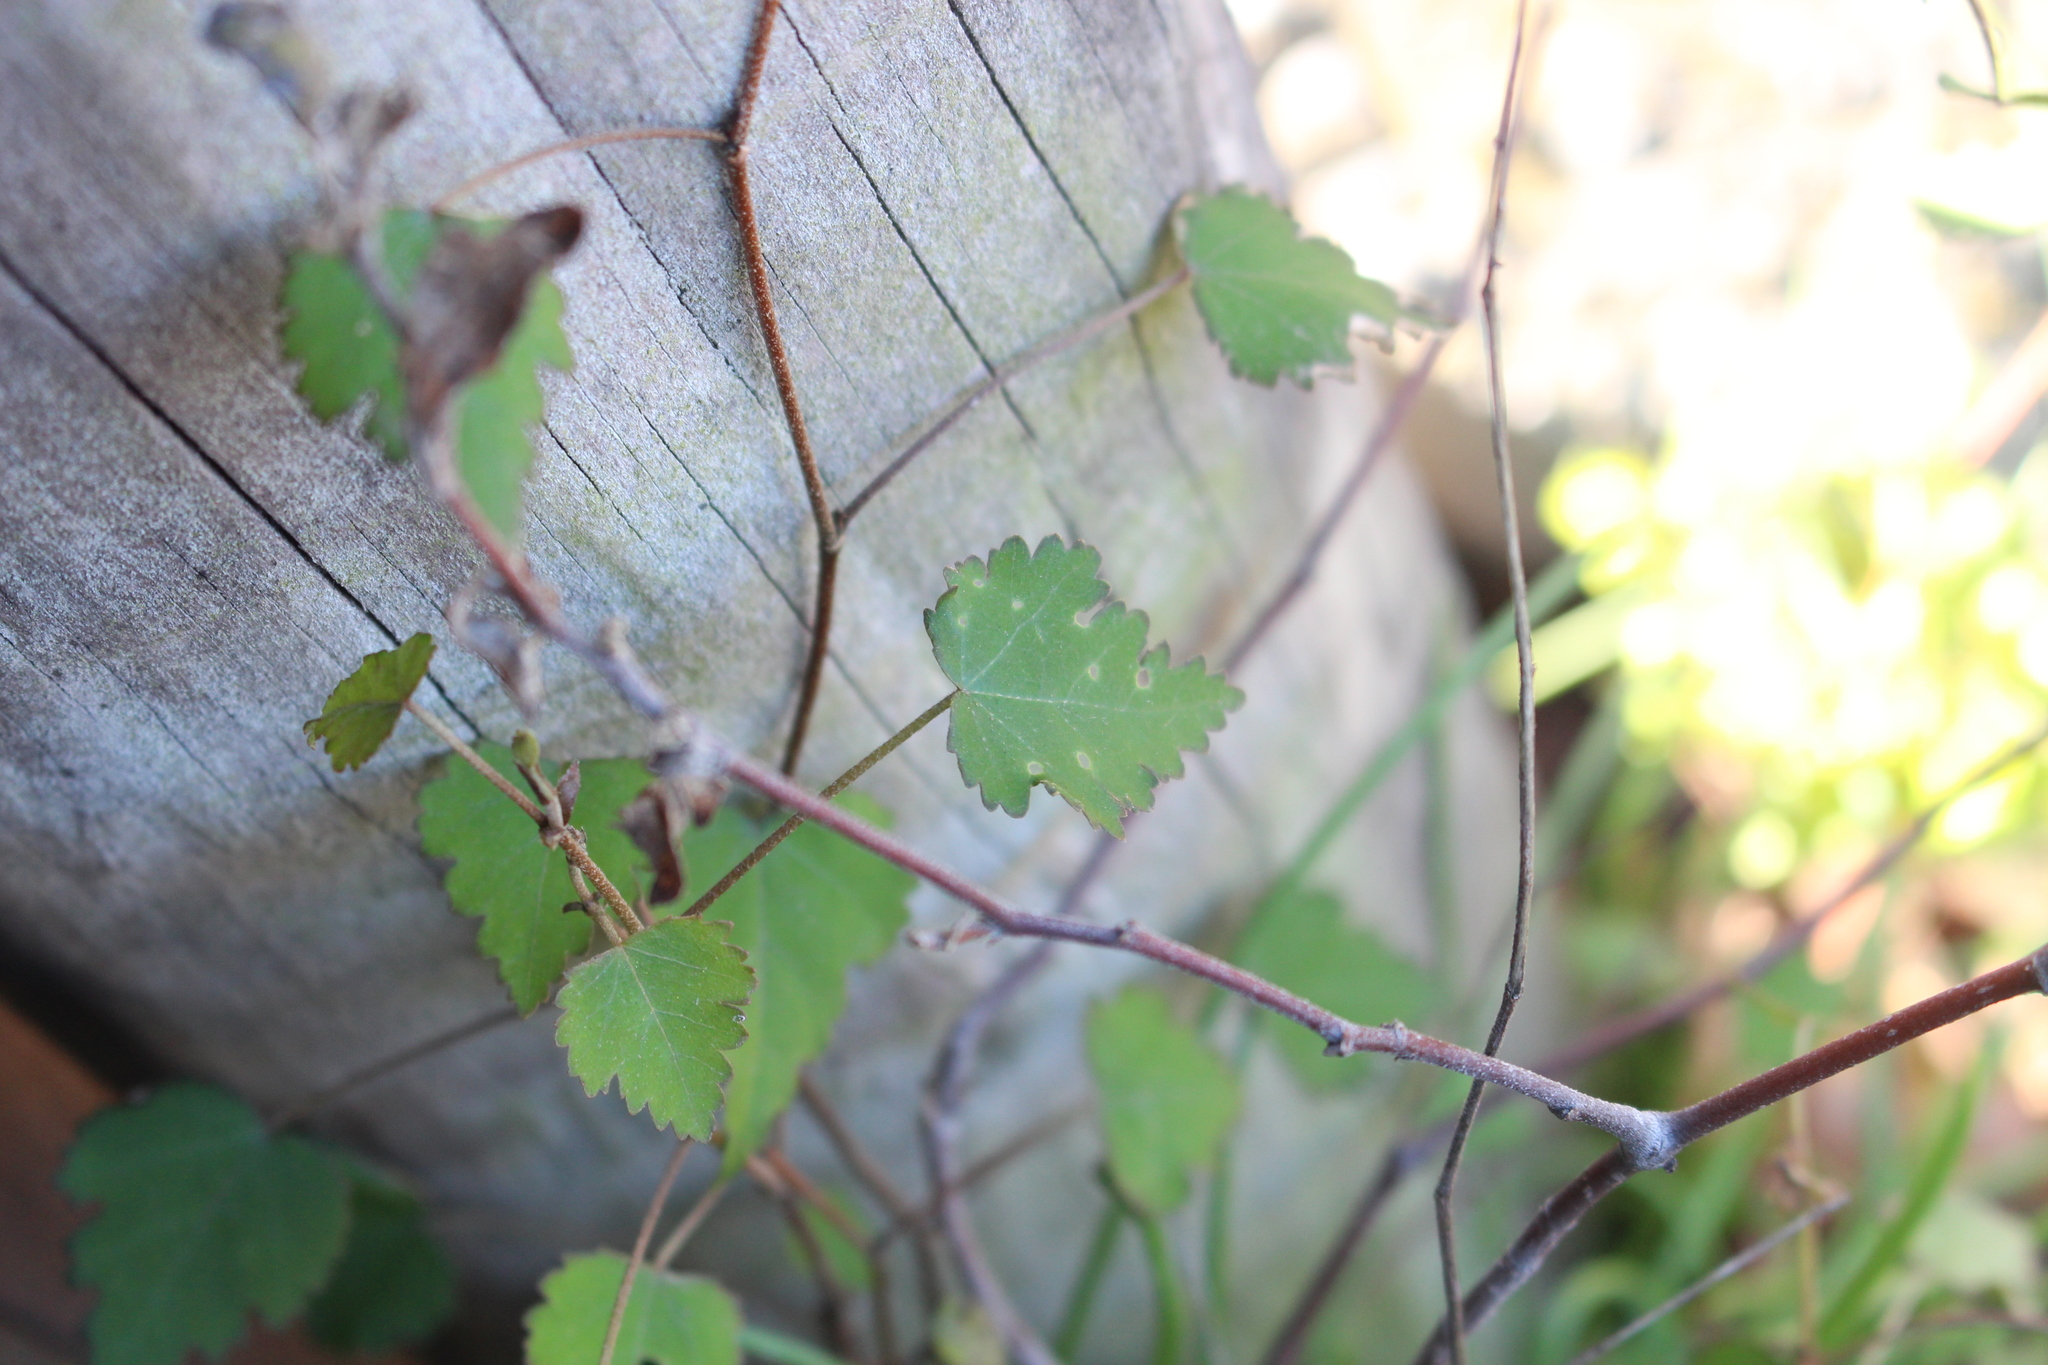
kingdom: Plantae
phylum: Tracheophyta
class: Magnoliopsida
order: Malvales
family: Malvaceae
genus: Plagianthus
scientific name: Plagianthus regius
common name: Manatu
